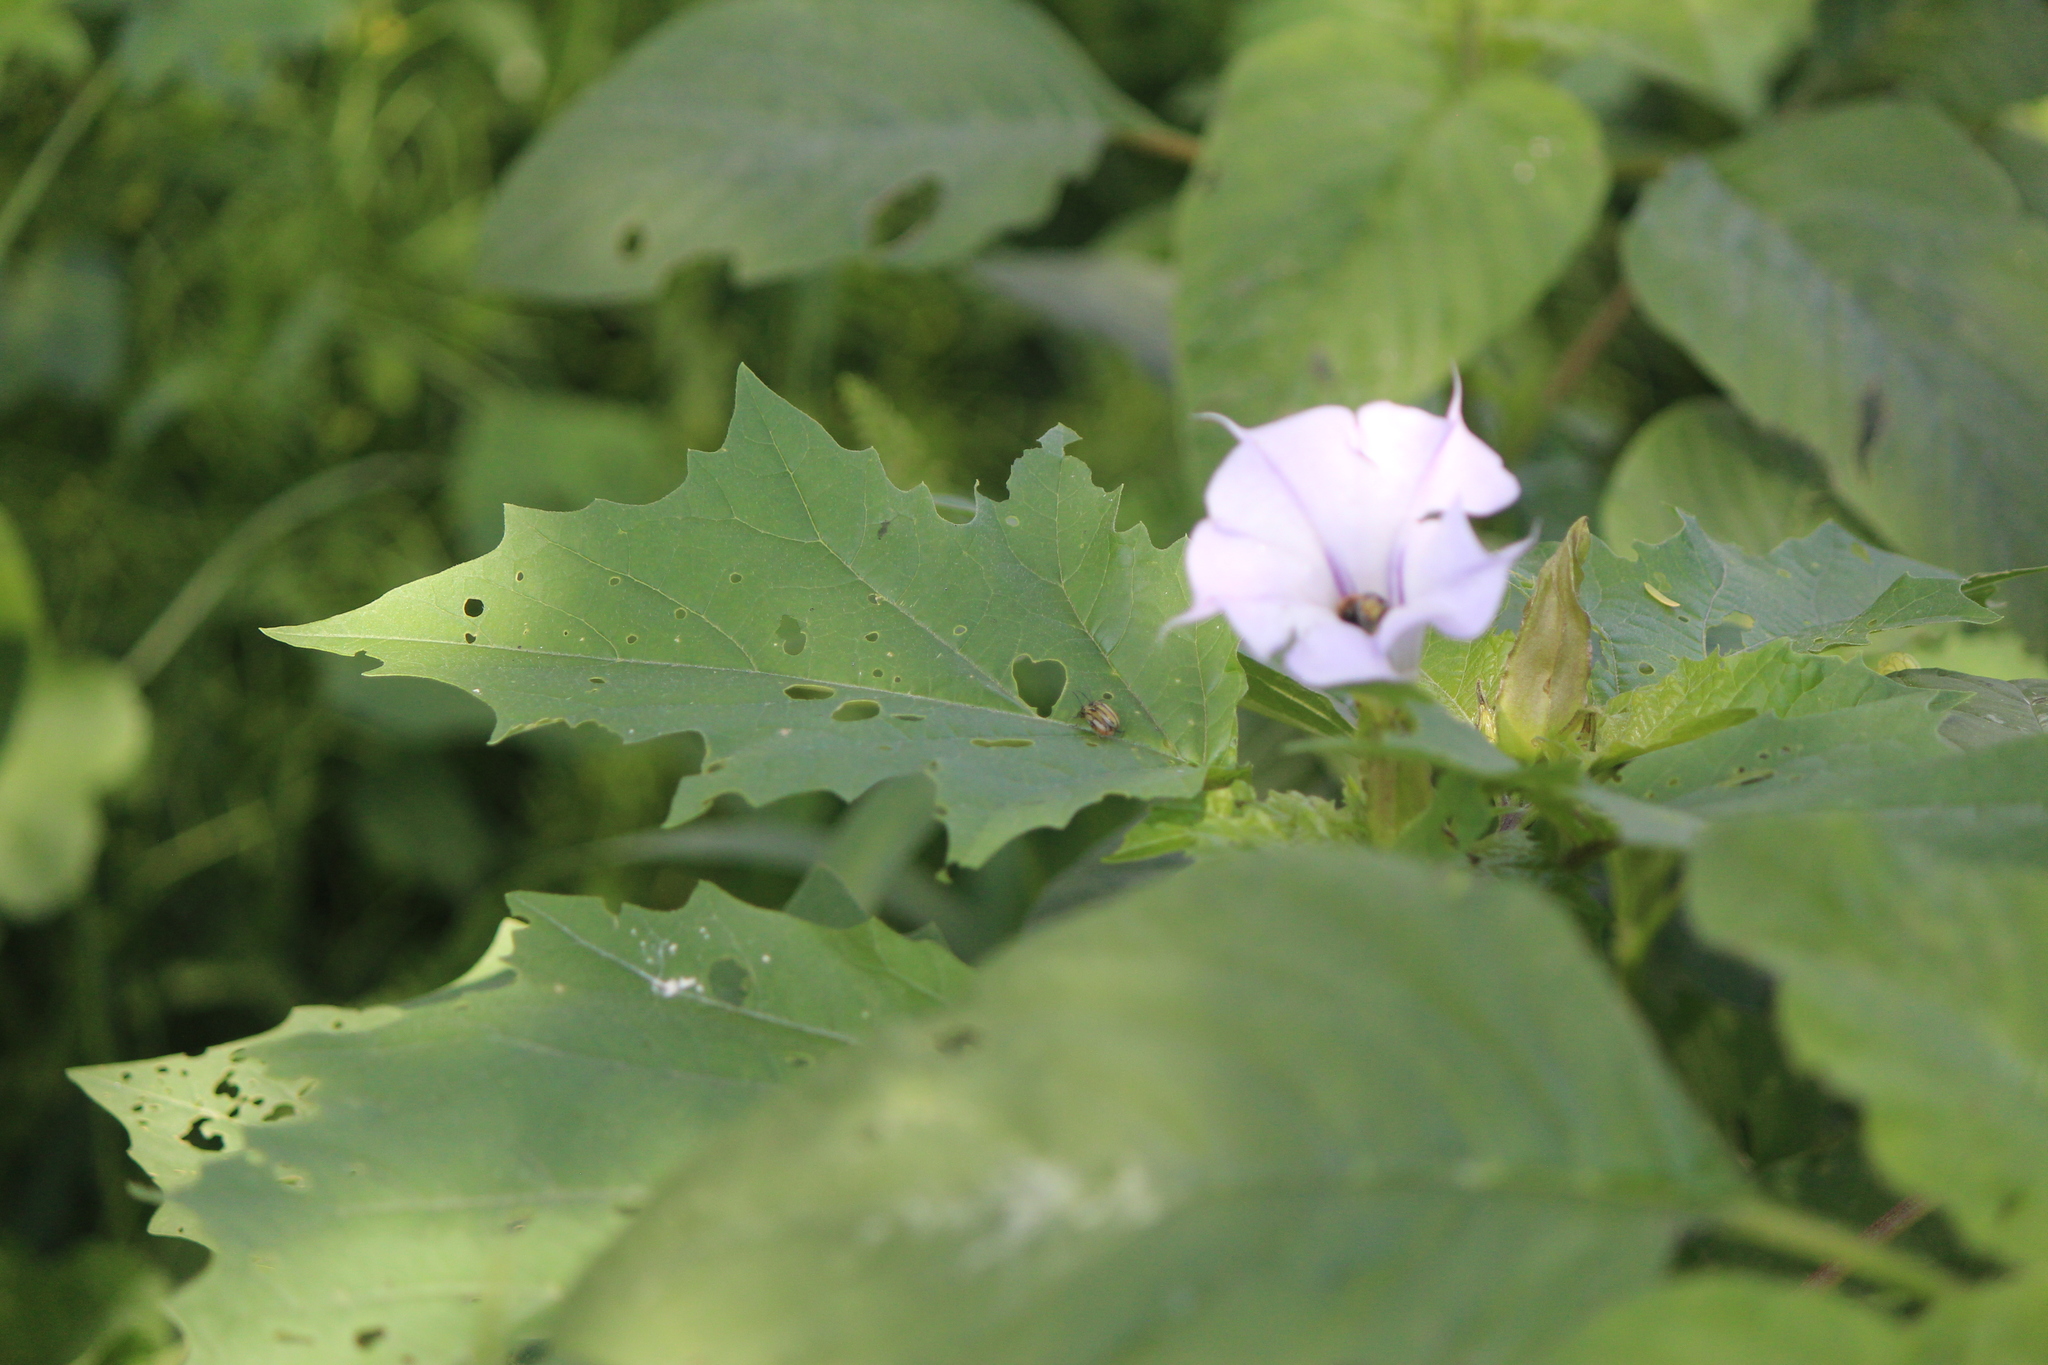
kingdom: Plantae
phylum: Tracheophyta
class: Magnoliopsida
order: Solanales
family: Solanaceae
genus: Datura
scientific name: Datura stramonium
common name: Thorn-apple
